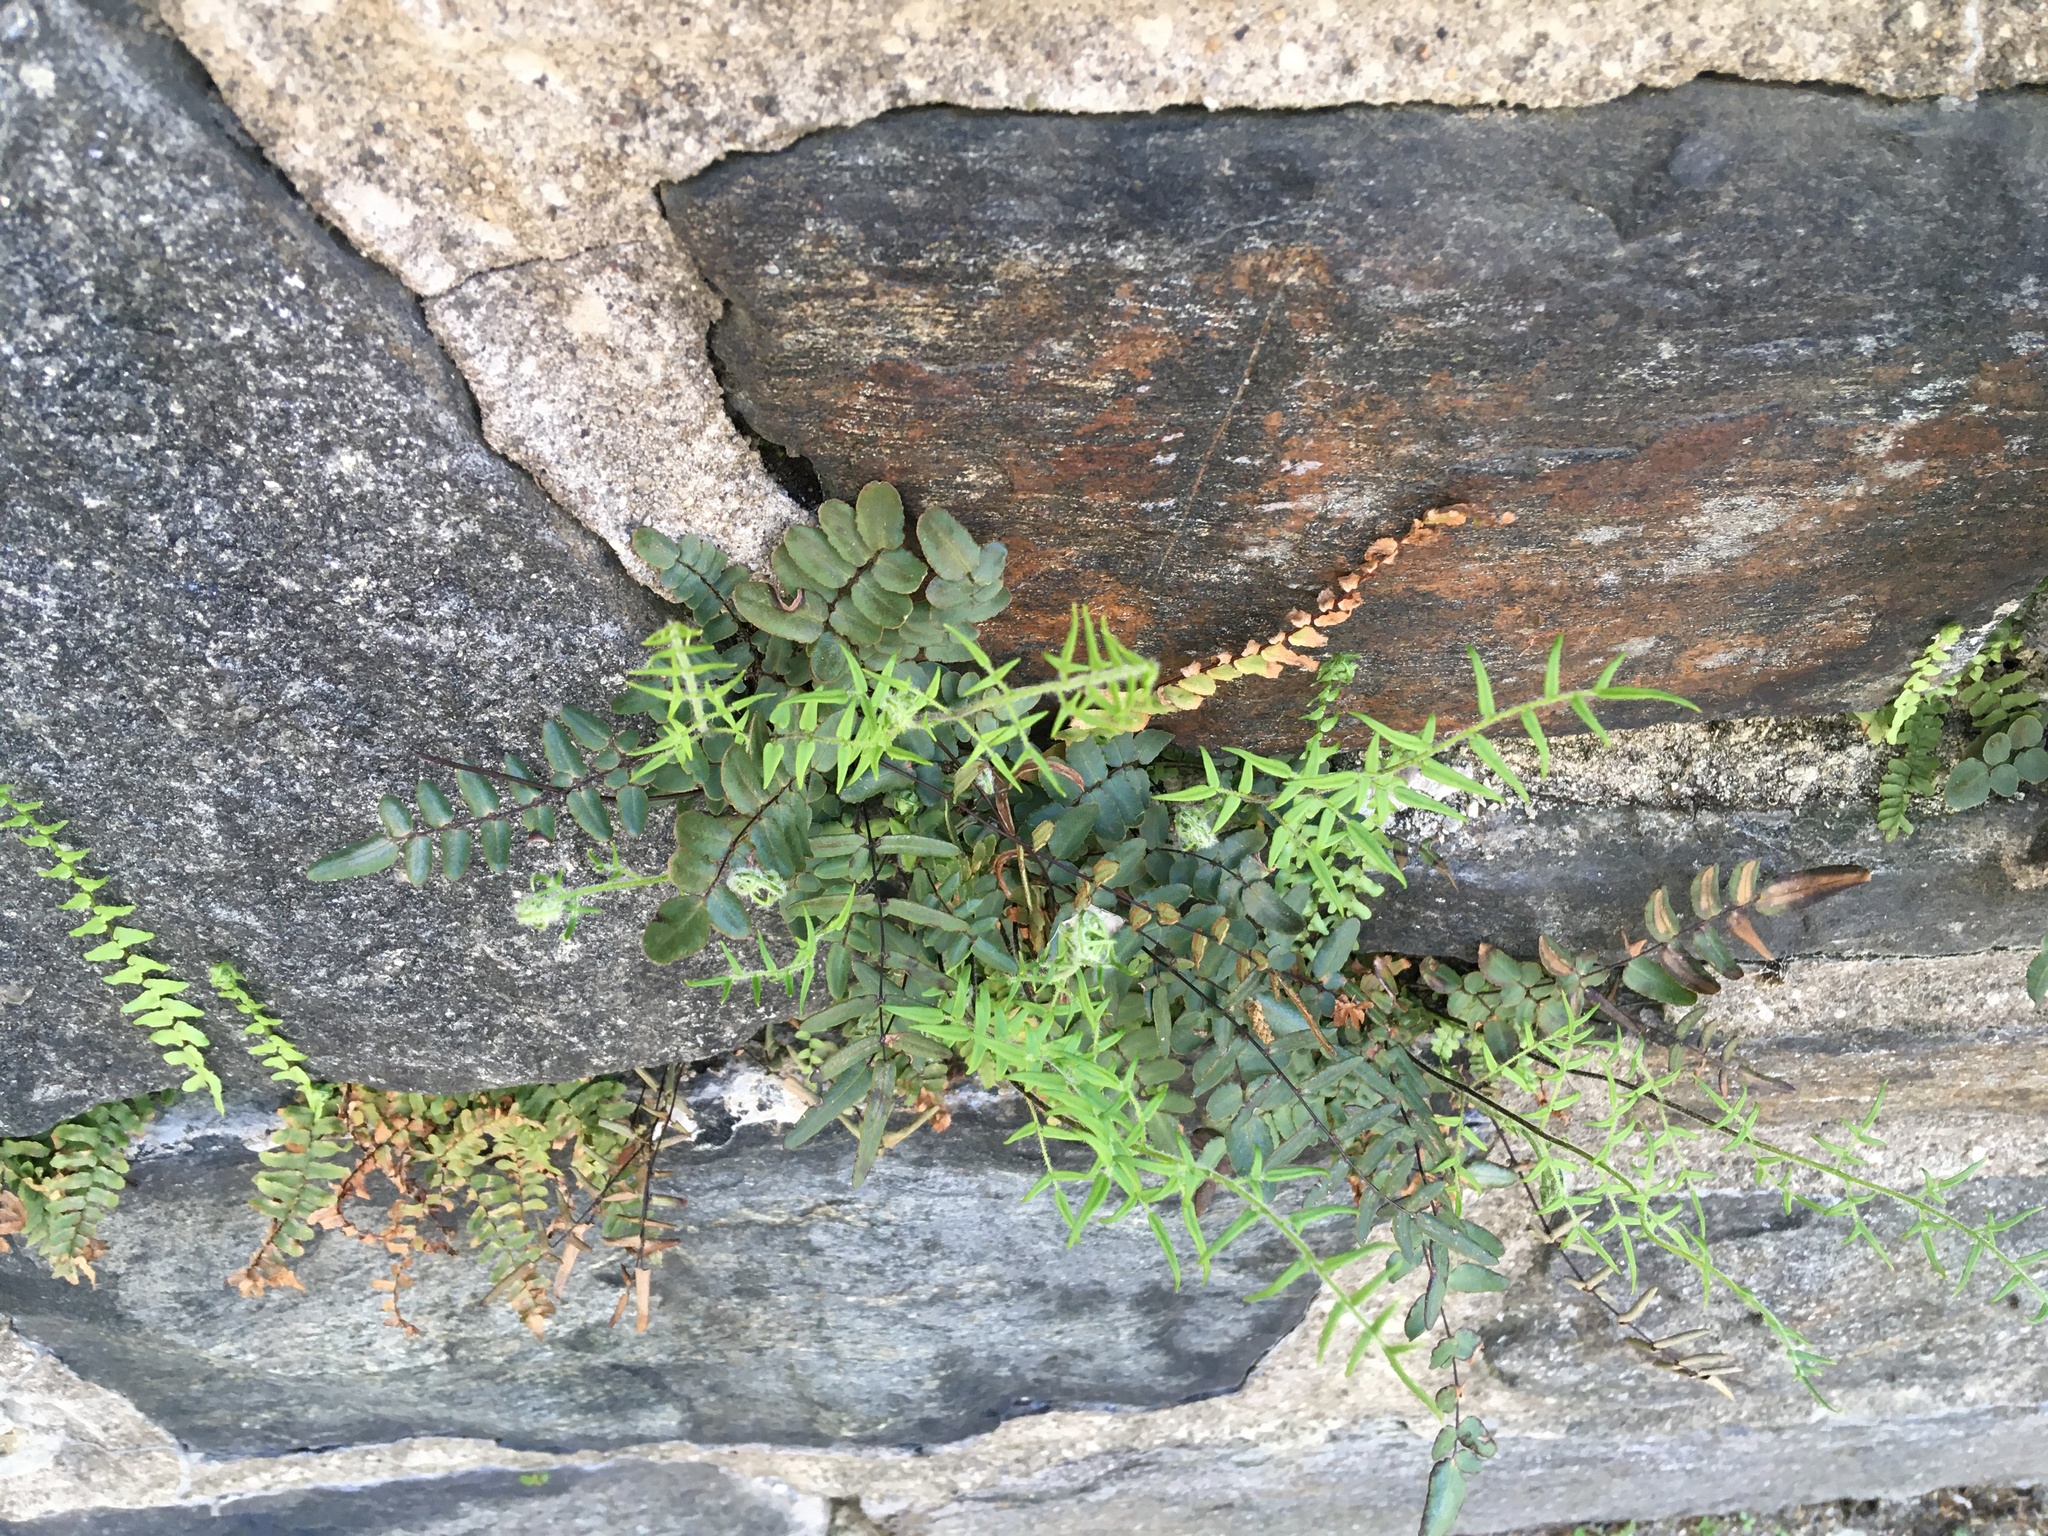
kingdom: Plantae
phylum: Tracheophyta
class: Polypodiopsida
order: Polypodiales
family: Pteridaceae
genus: Pellaea
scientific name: Pellaea atropurpurea
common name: Hairy cliffbrake
